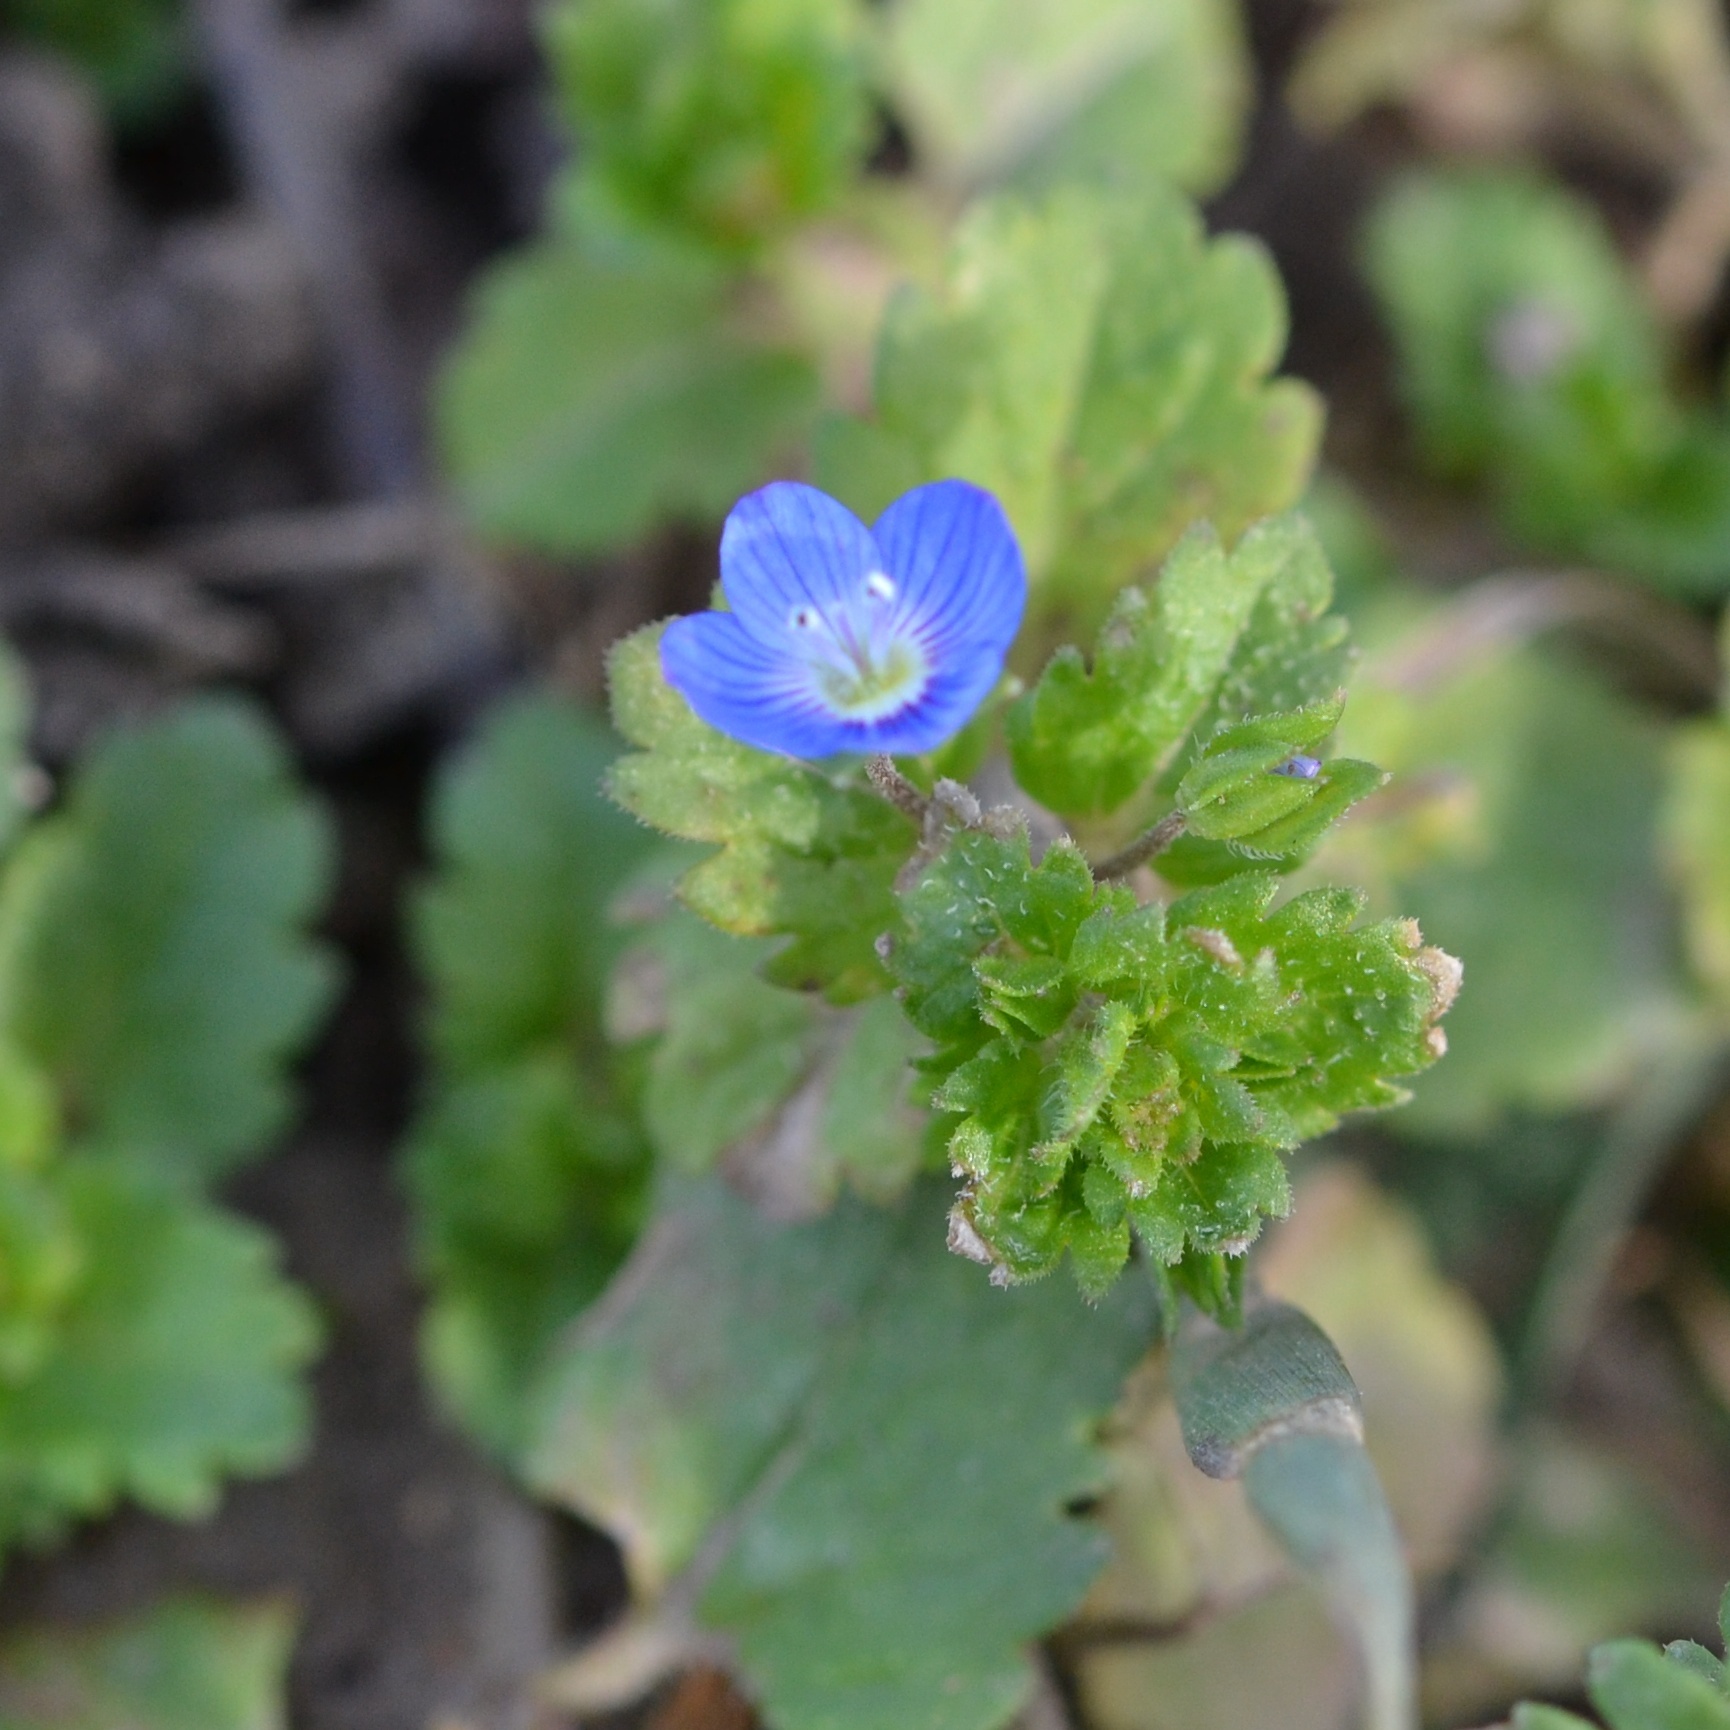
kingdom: Plantae
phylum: Tracheophyta
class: Magnoliopsida
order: Lamiales
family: Plantaginaceae
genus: Veronica
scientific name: Veronica persica
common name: Common field-speedwell
